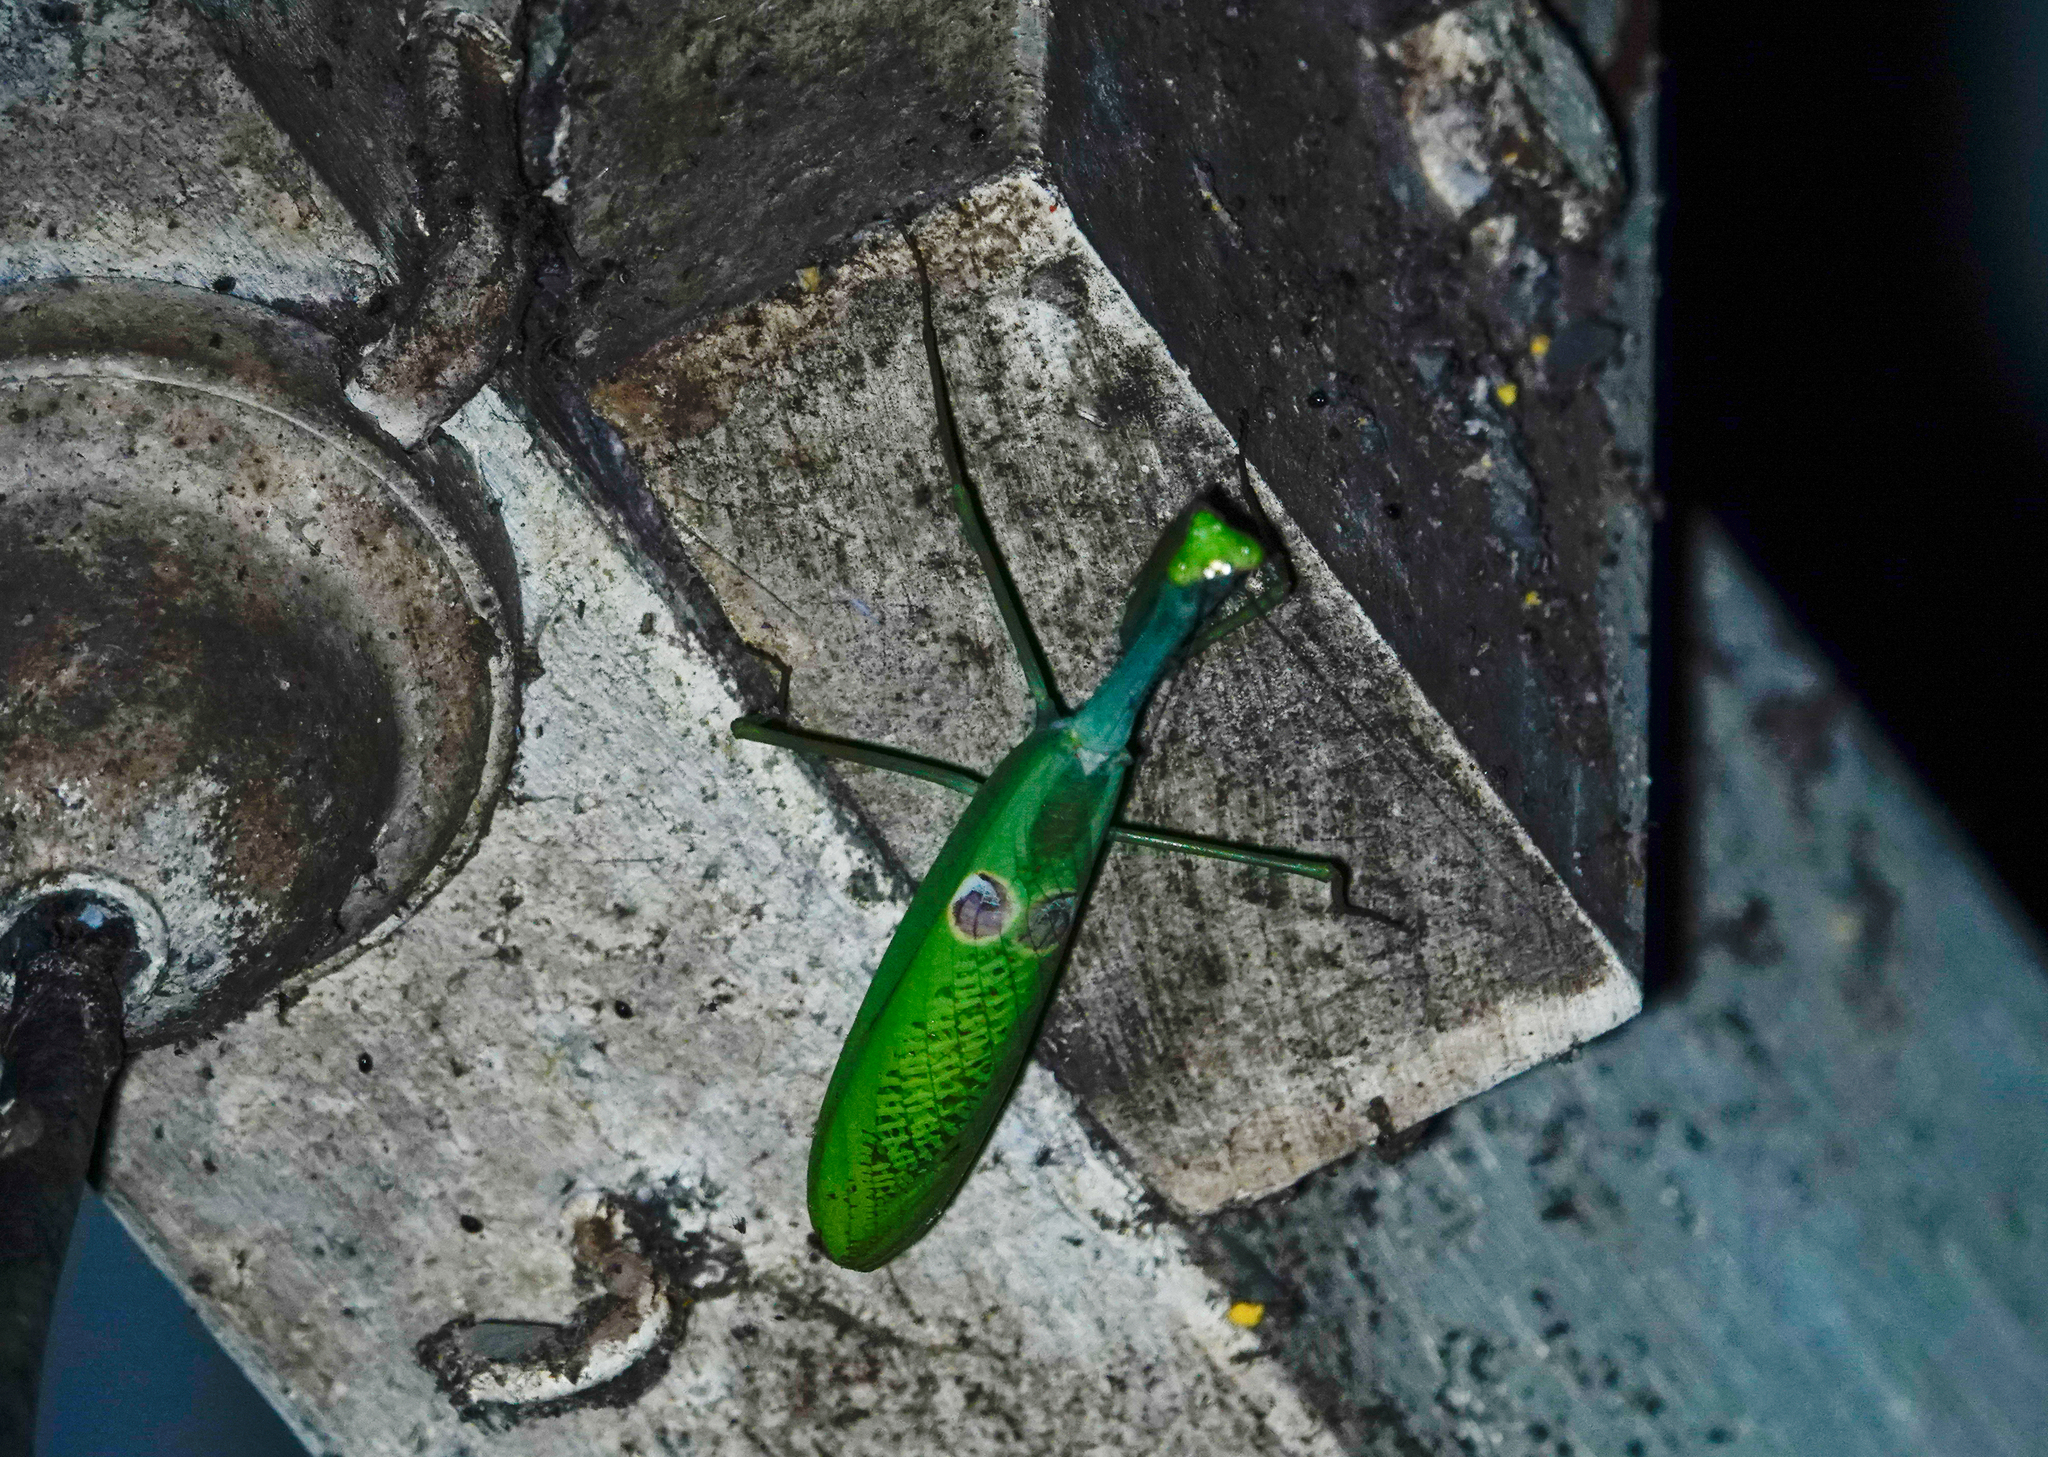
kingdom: Animalia
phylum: Arthropoda
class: Insecta
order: Mantodea
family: Mantidae
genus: Stagmatoptera
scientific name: Stagmatoptera binotata
